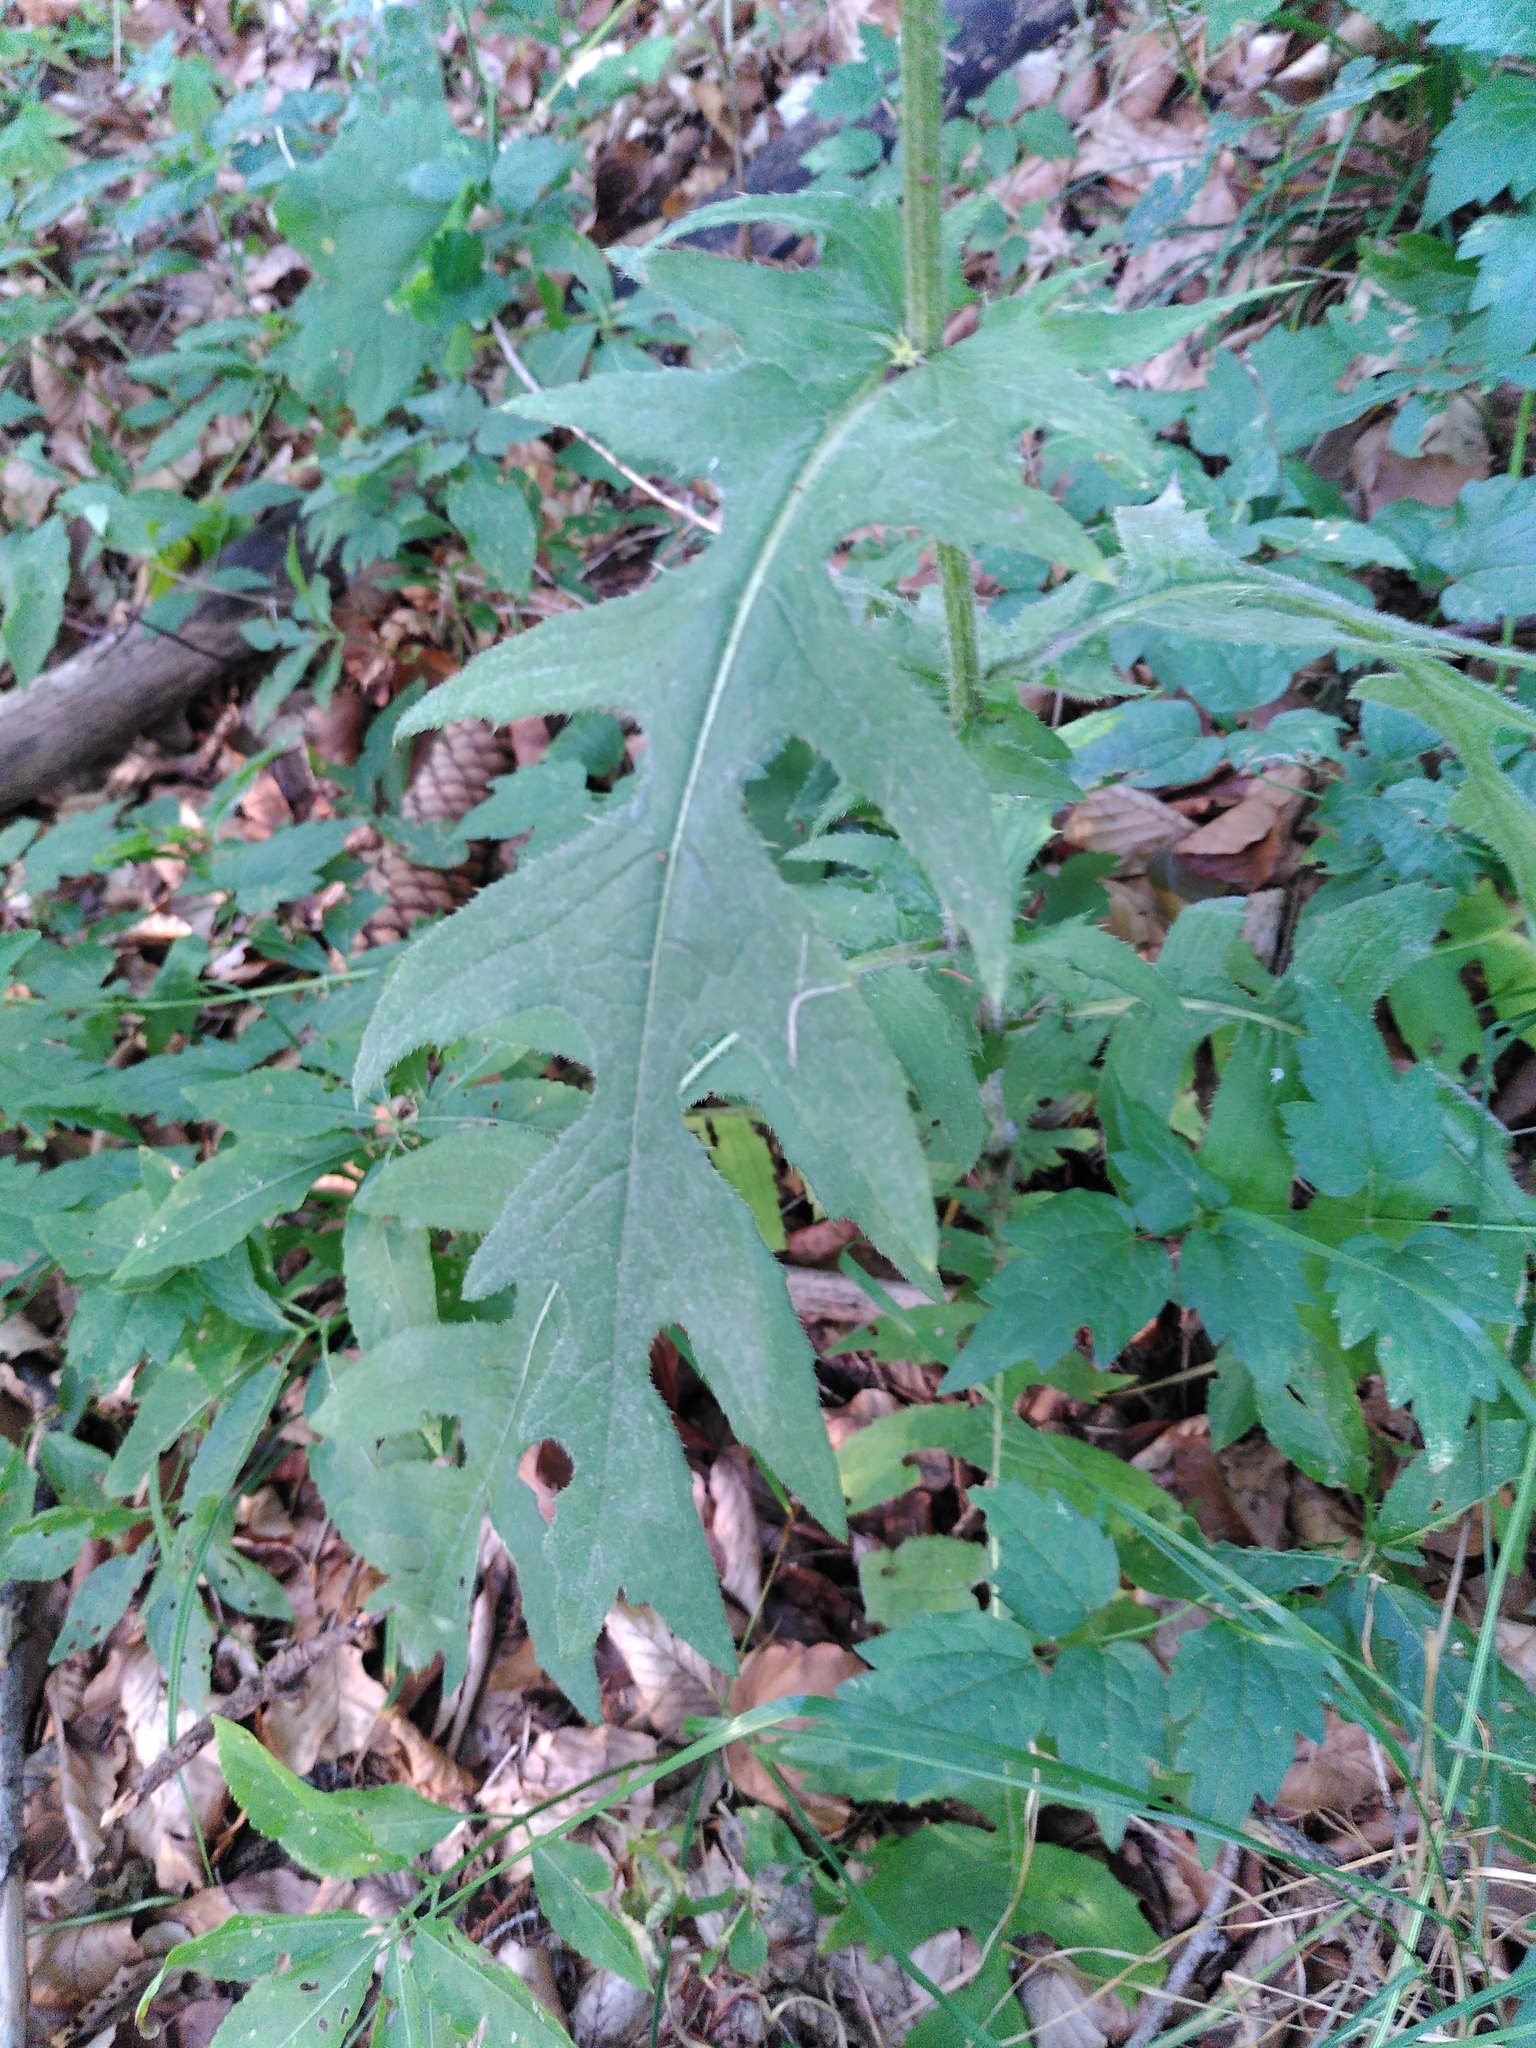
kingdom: Plantae
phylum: Tracheophyta
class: Magnoliopsida
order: Asterales
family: Asteraceae
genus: Cirsium
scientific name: Cirsium erisithales
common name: Yellow thistle
